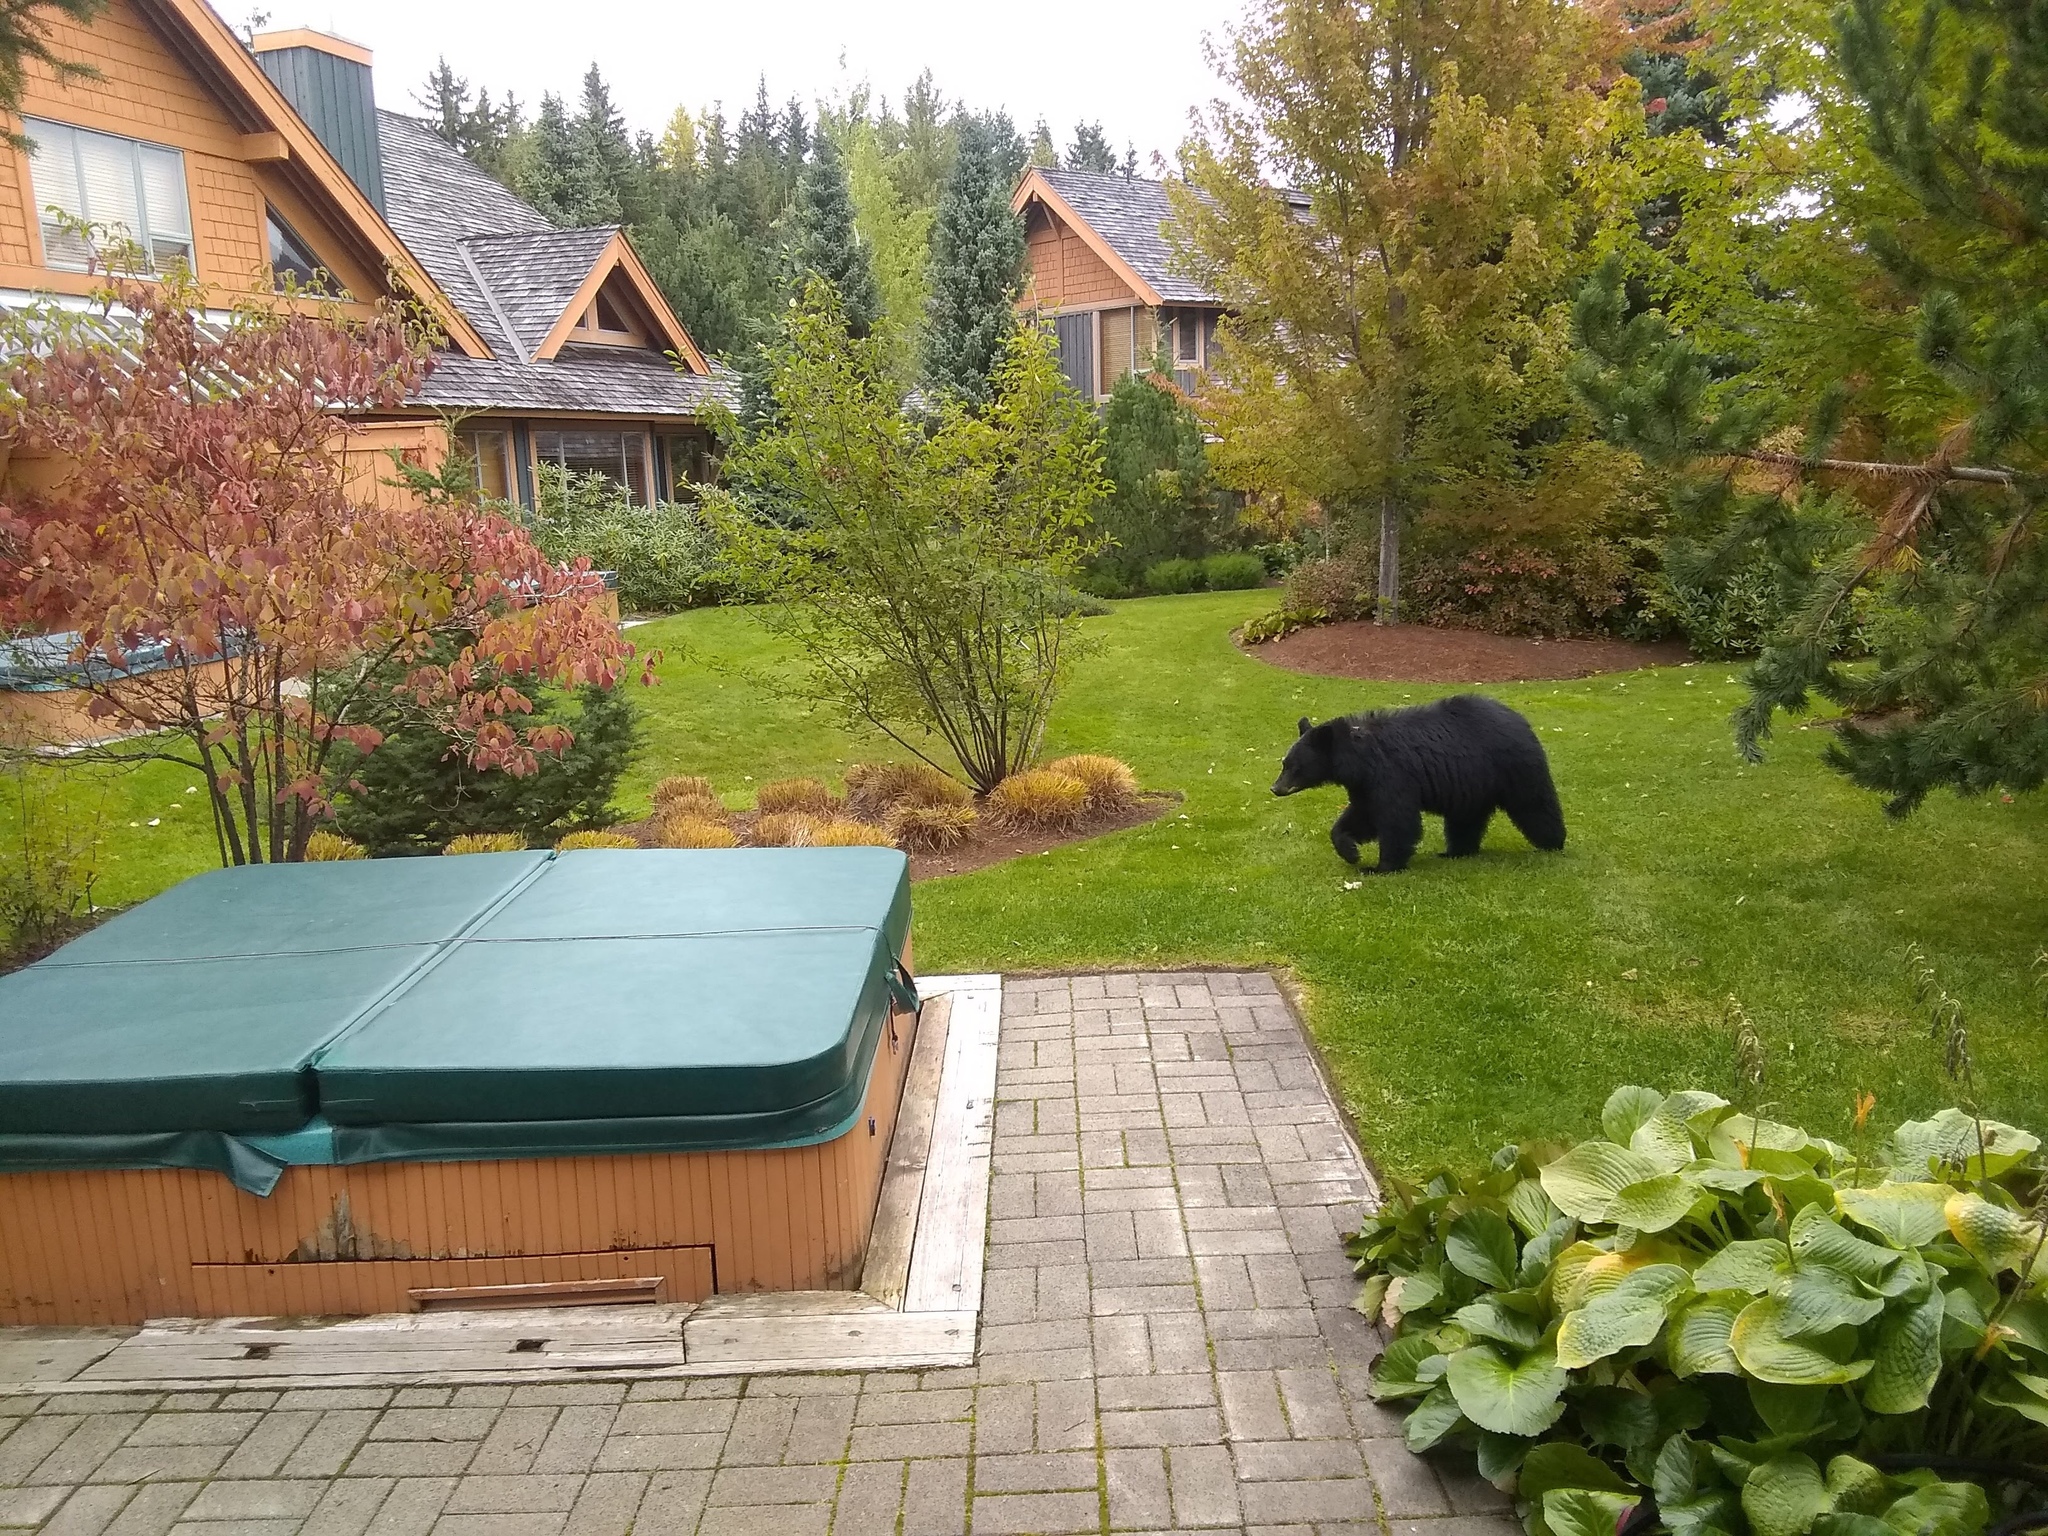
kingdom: Animalia
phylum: Chordata
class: Mammalia
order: Carnivora
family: Ursidae
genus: Ursus
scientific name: Ursus americanus
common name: American black bear
